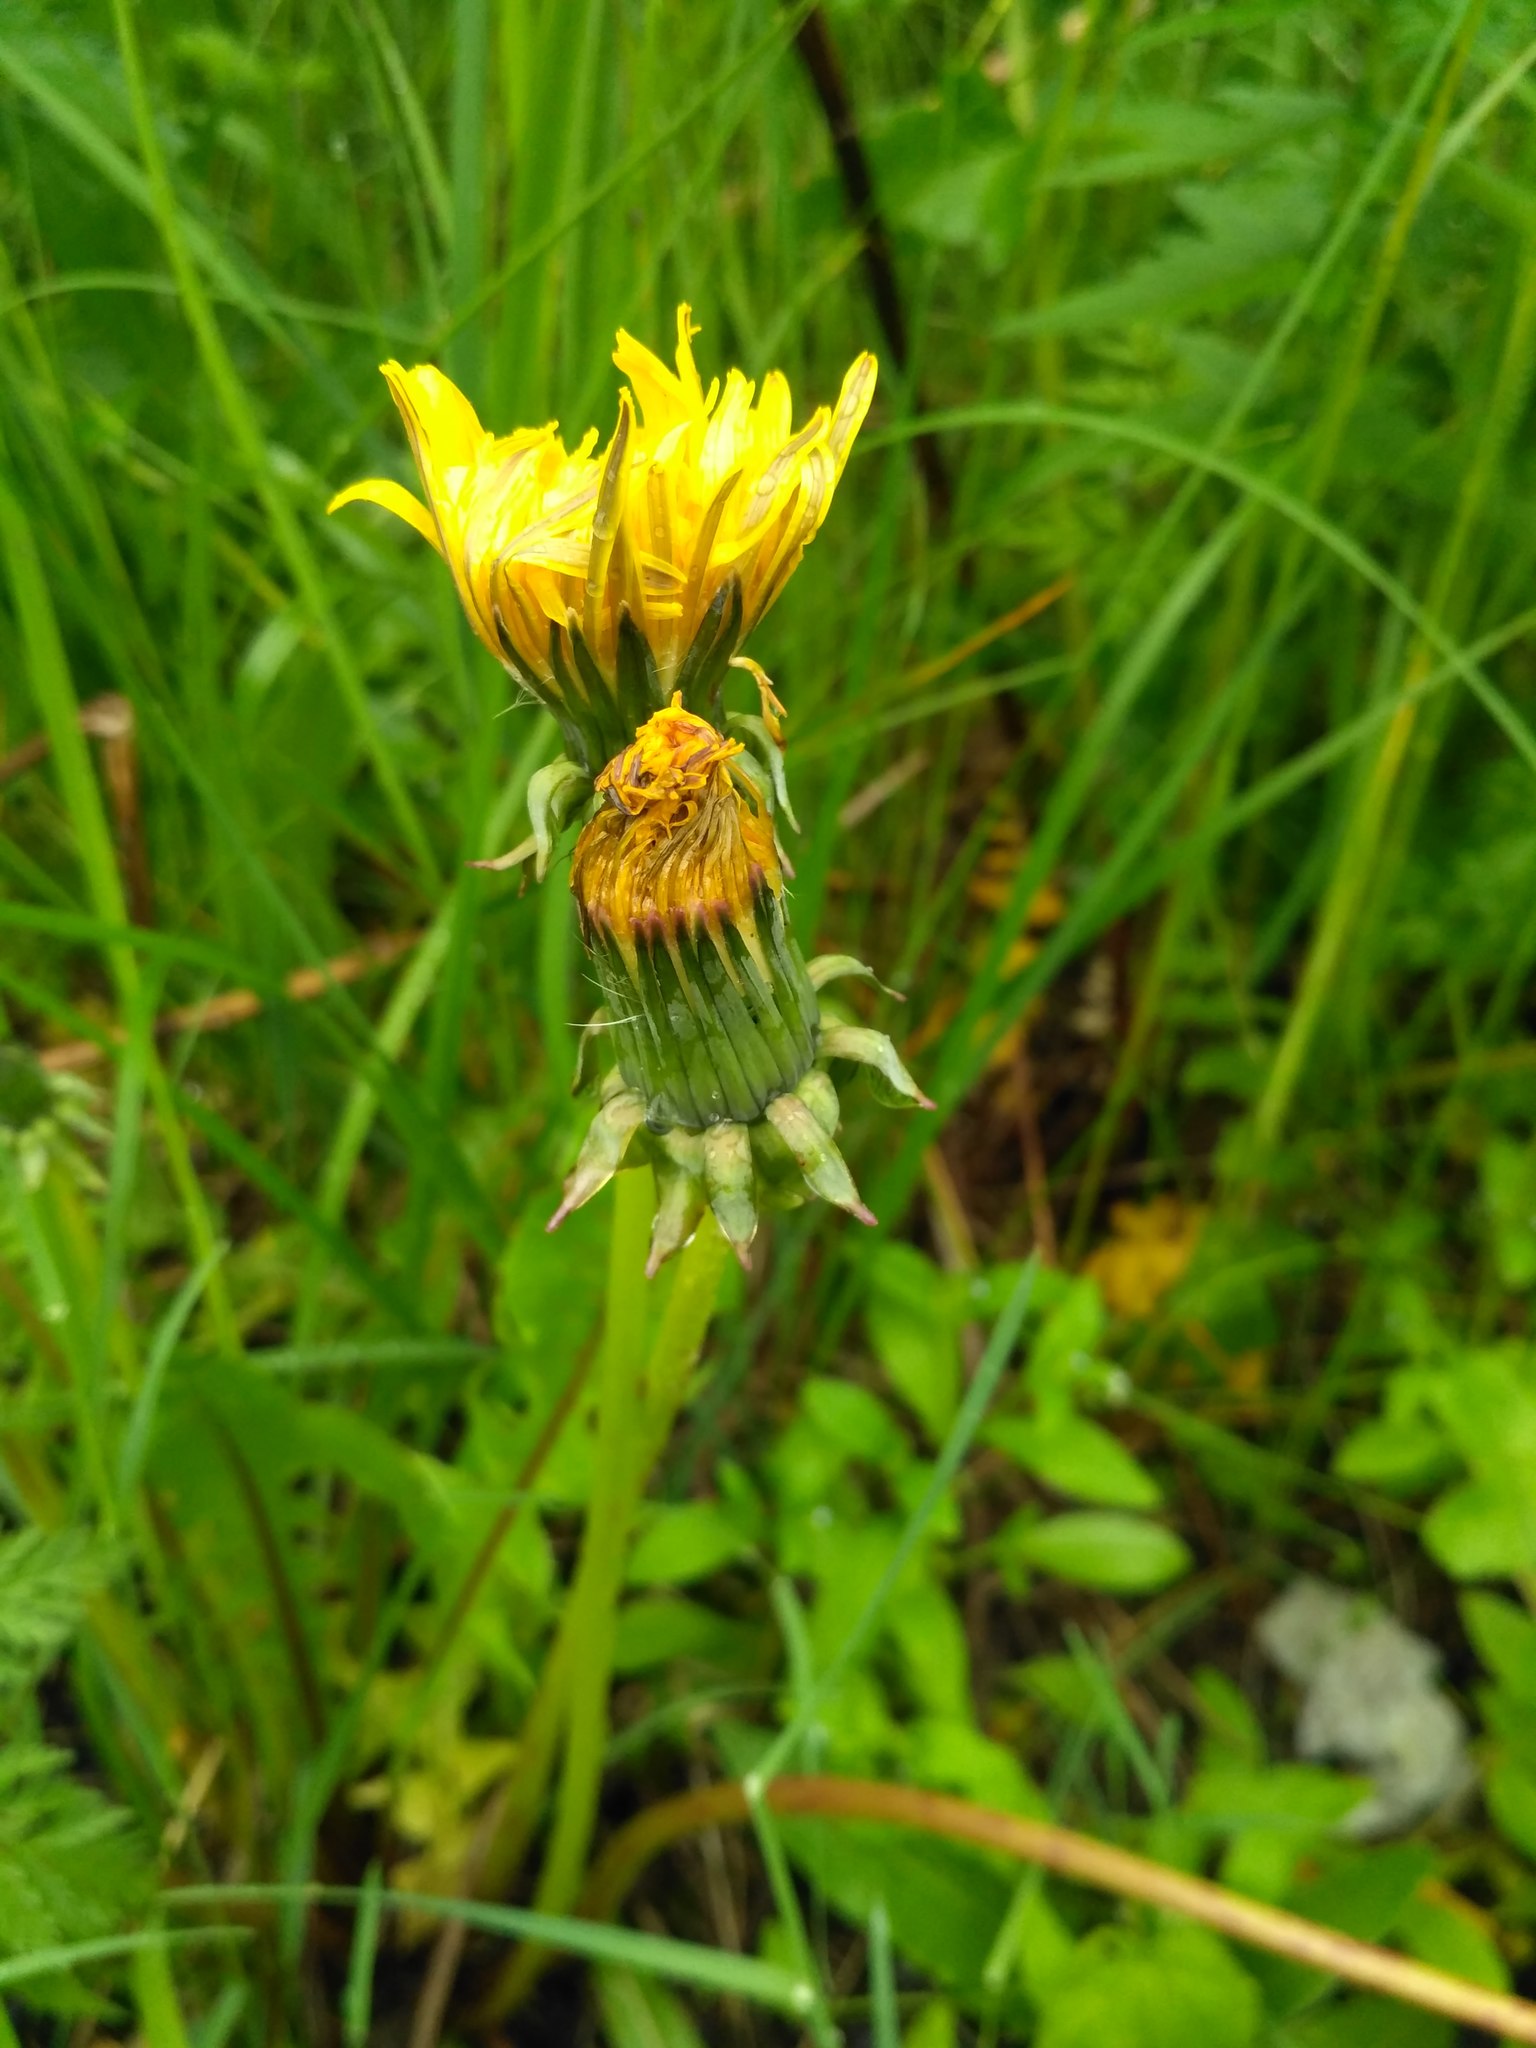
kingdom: Plantae
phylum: Tracheophyta
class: Magnoliopsida
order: Asterales
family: Asteraceae
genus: Taraxacum
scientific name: Taraxacum officinale
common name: Common dandelion
